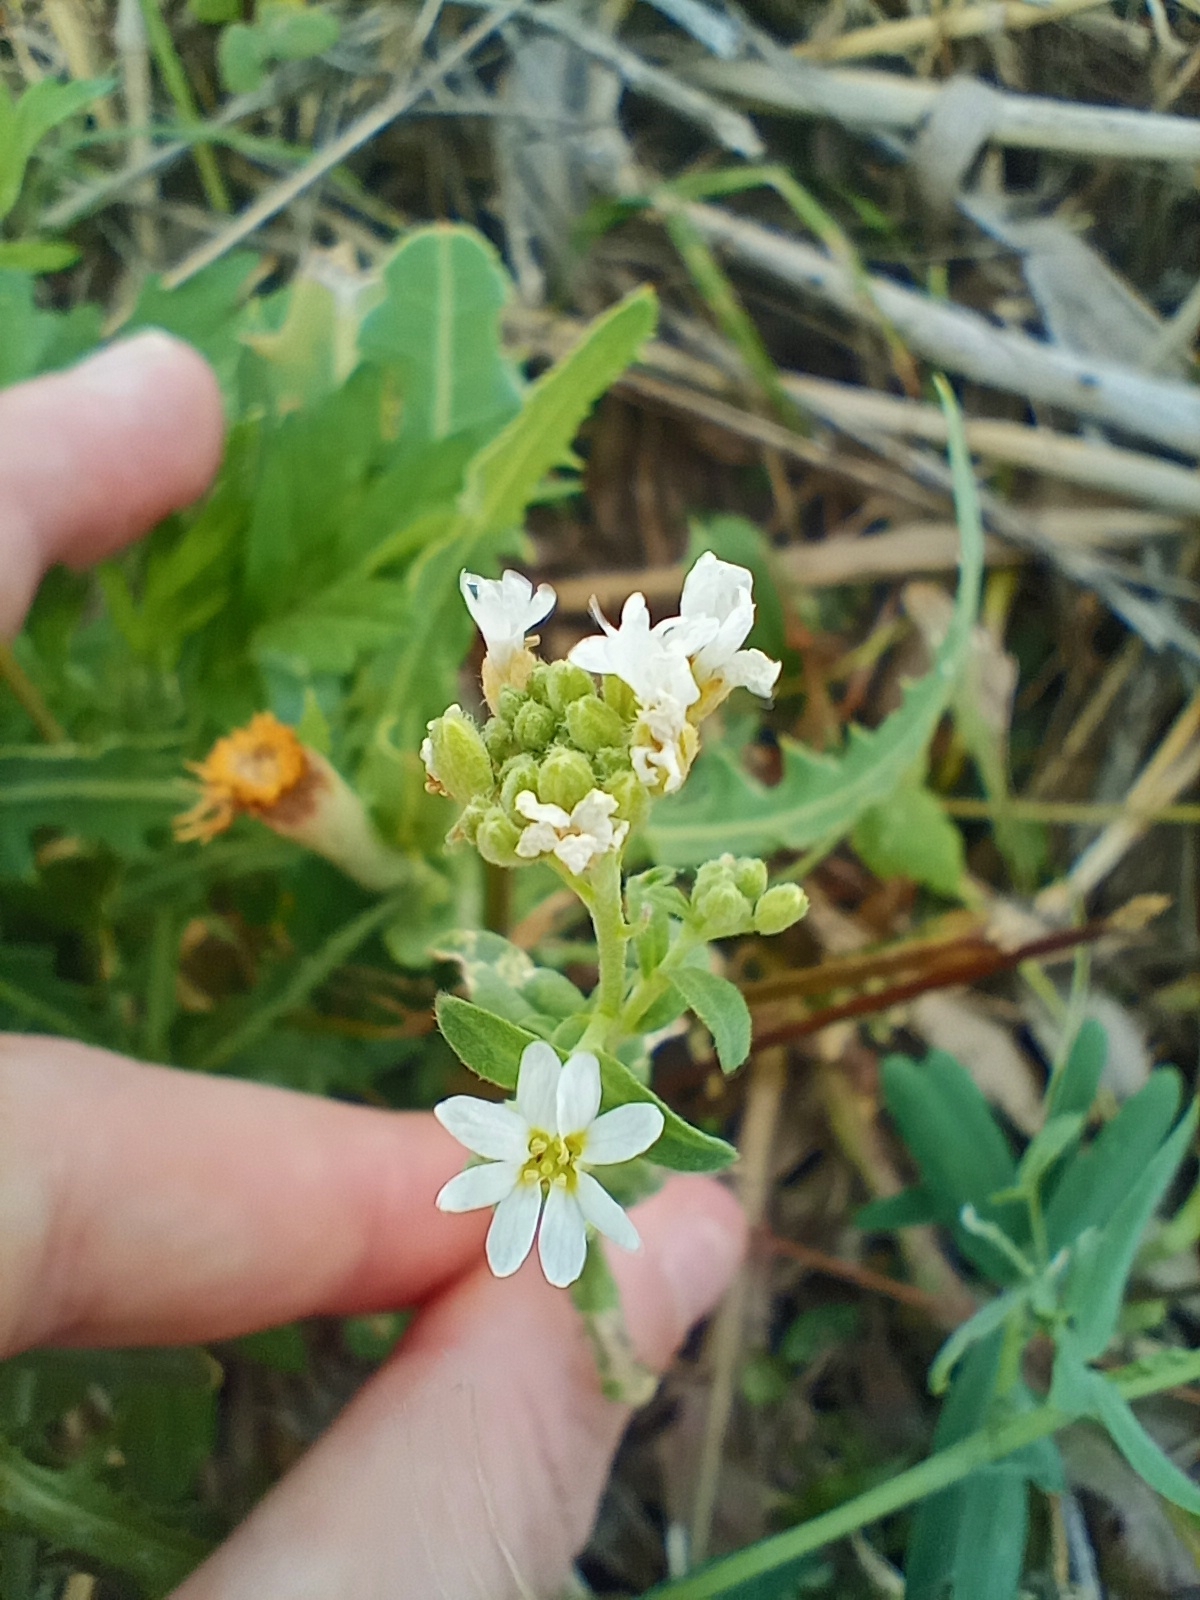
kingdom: Plantae
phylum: Tracheophyta
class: Magnoliopsida
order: Brassicales
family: Brassicaceae
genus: Berteroa
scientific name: Berteroa incana
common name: Hoary alison
